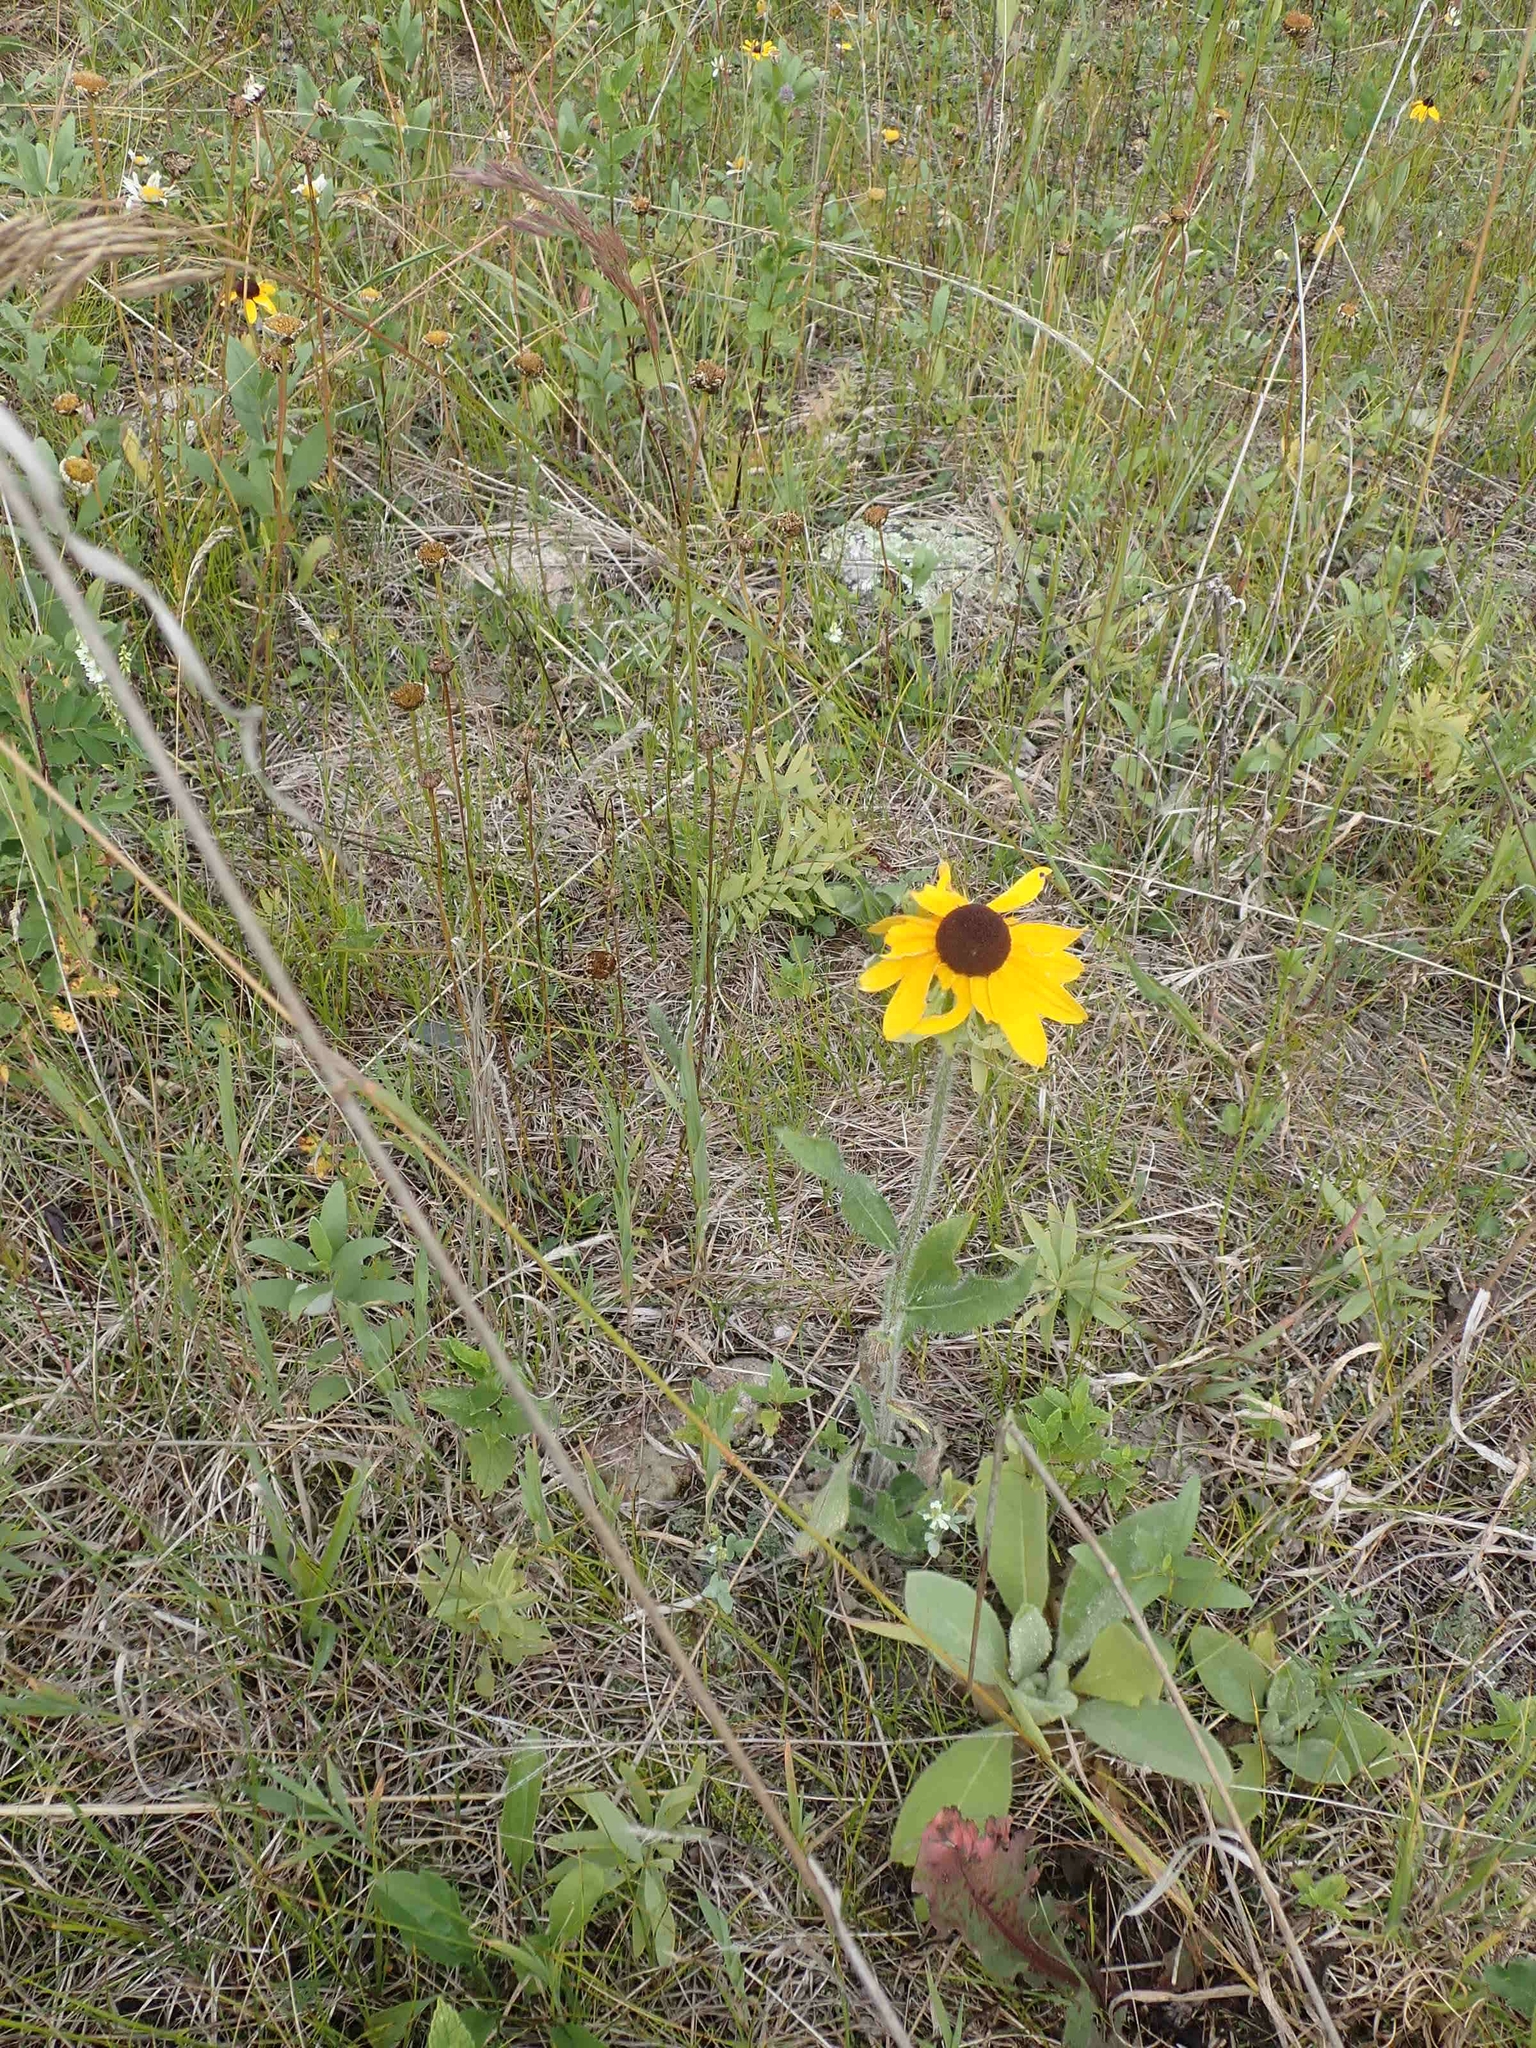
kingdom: Plantae
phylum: Tracheophyta
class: Magnoliopsida
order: Asterales
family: Asteraceae
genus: Rudbeckia
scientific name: Rudbeckia hirta
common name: Black-eyed-susan
